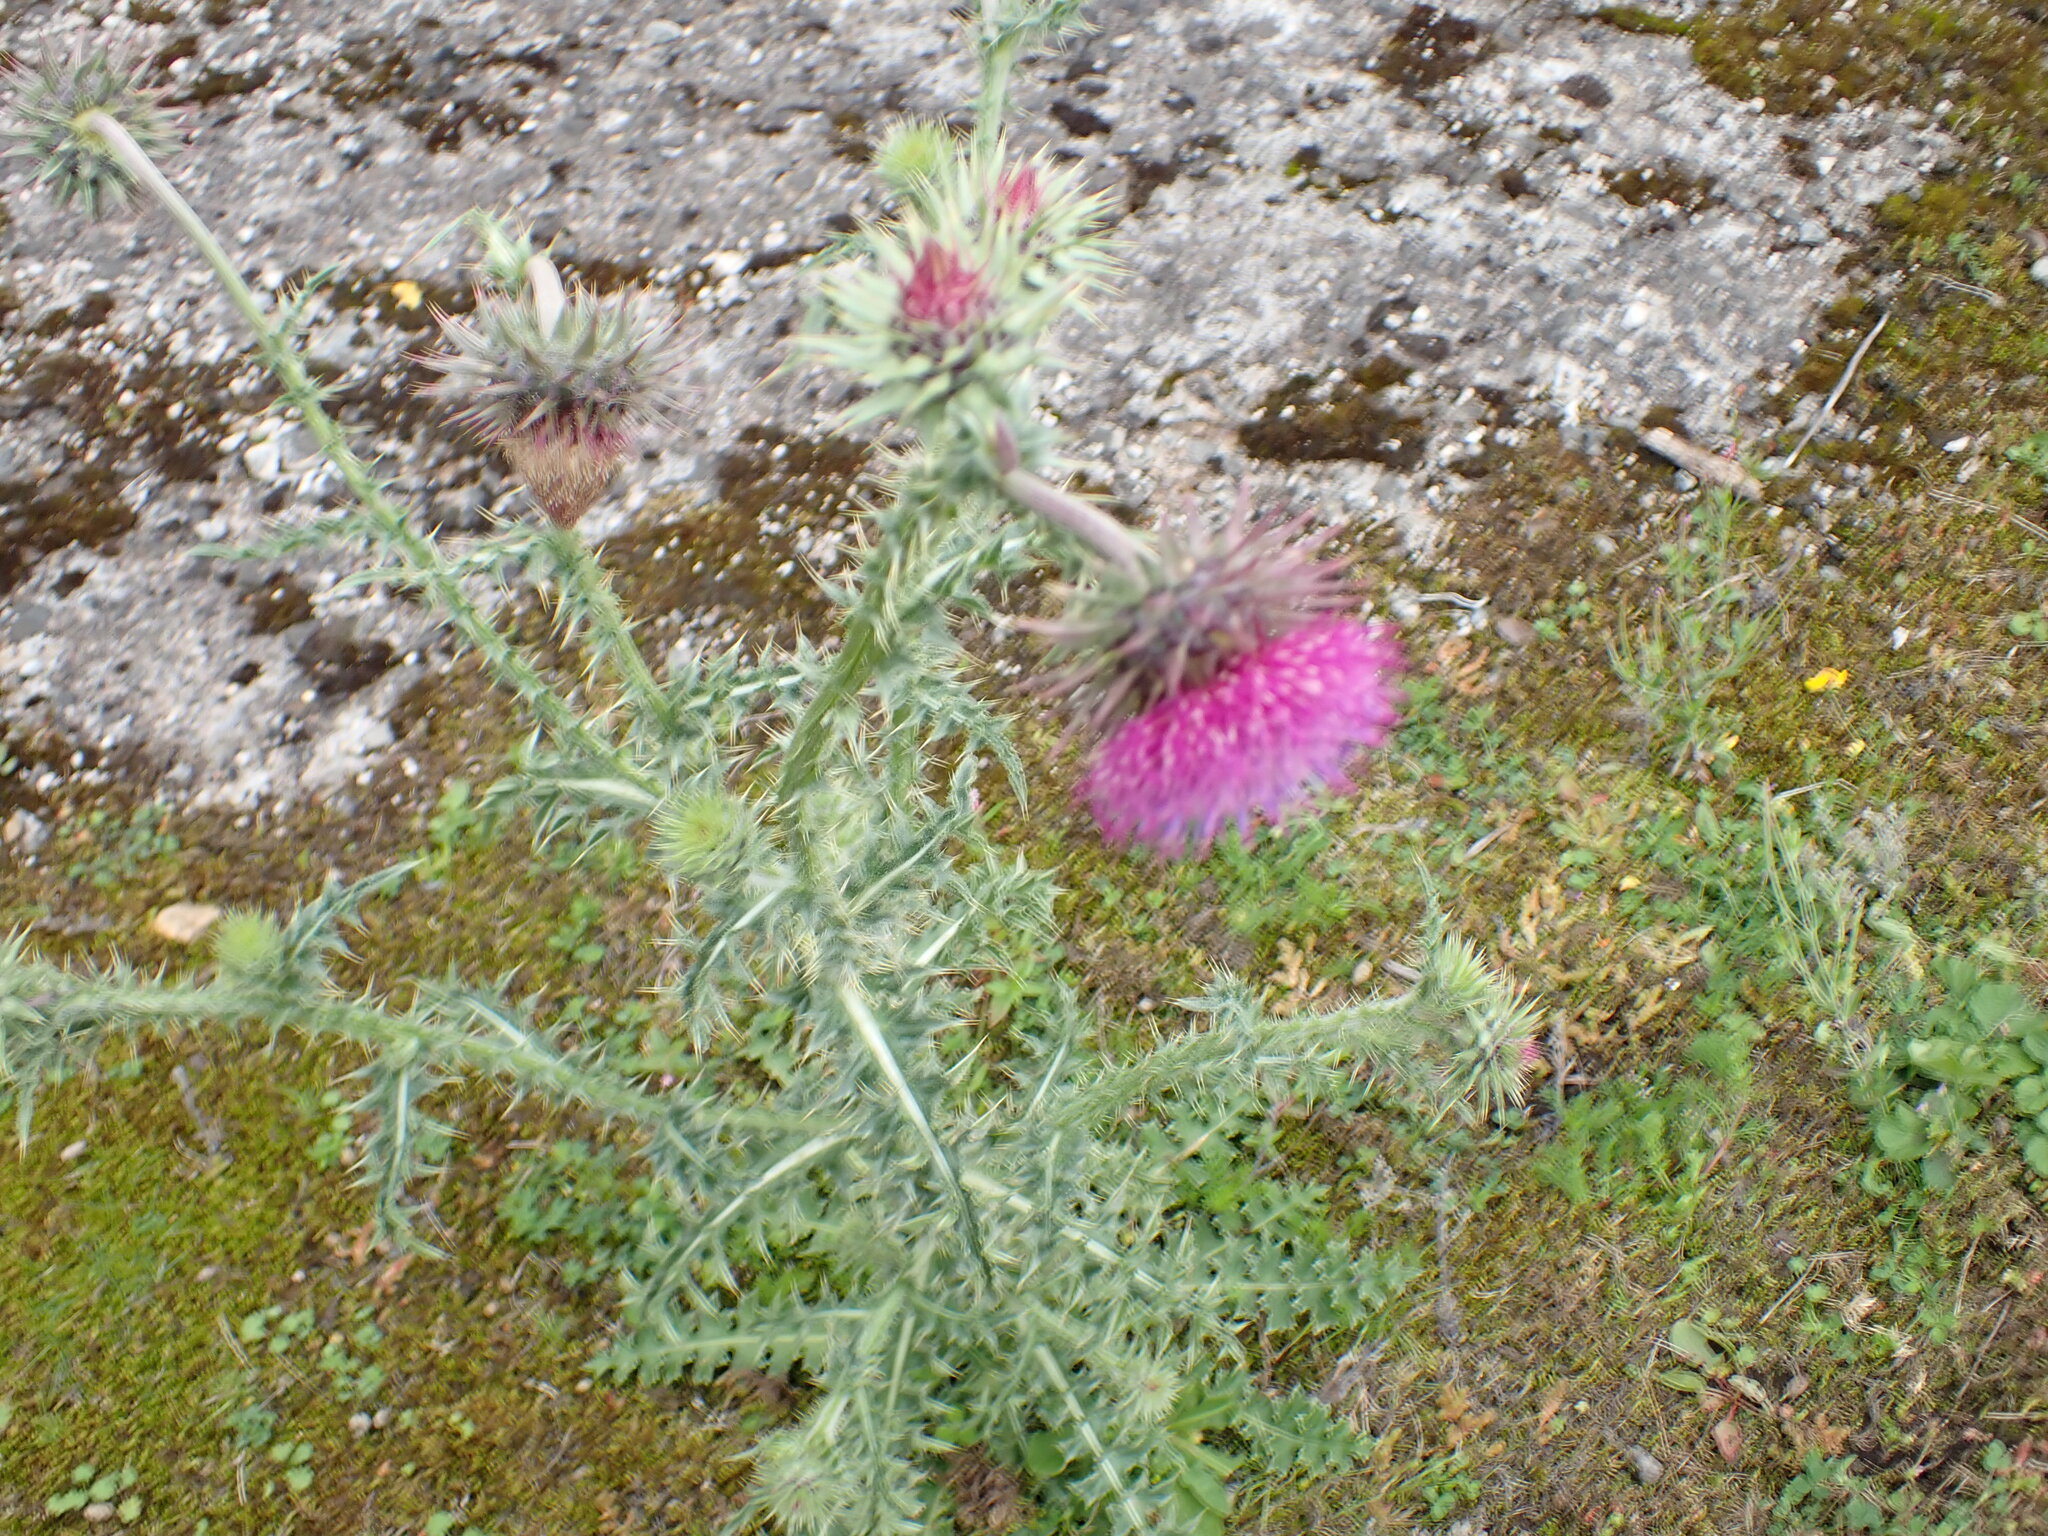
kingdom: Plantae
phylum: Tracheophyta
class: Magnoliopsida
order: Asterales
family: Asteraceae
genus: Carduus
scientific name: Carduus nutans
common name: Musk thistle
